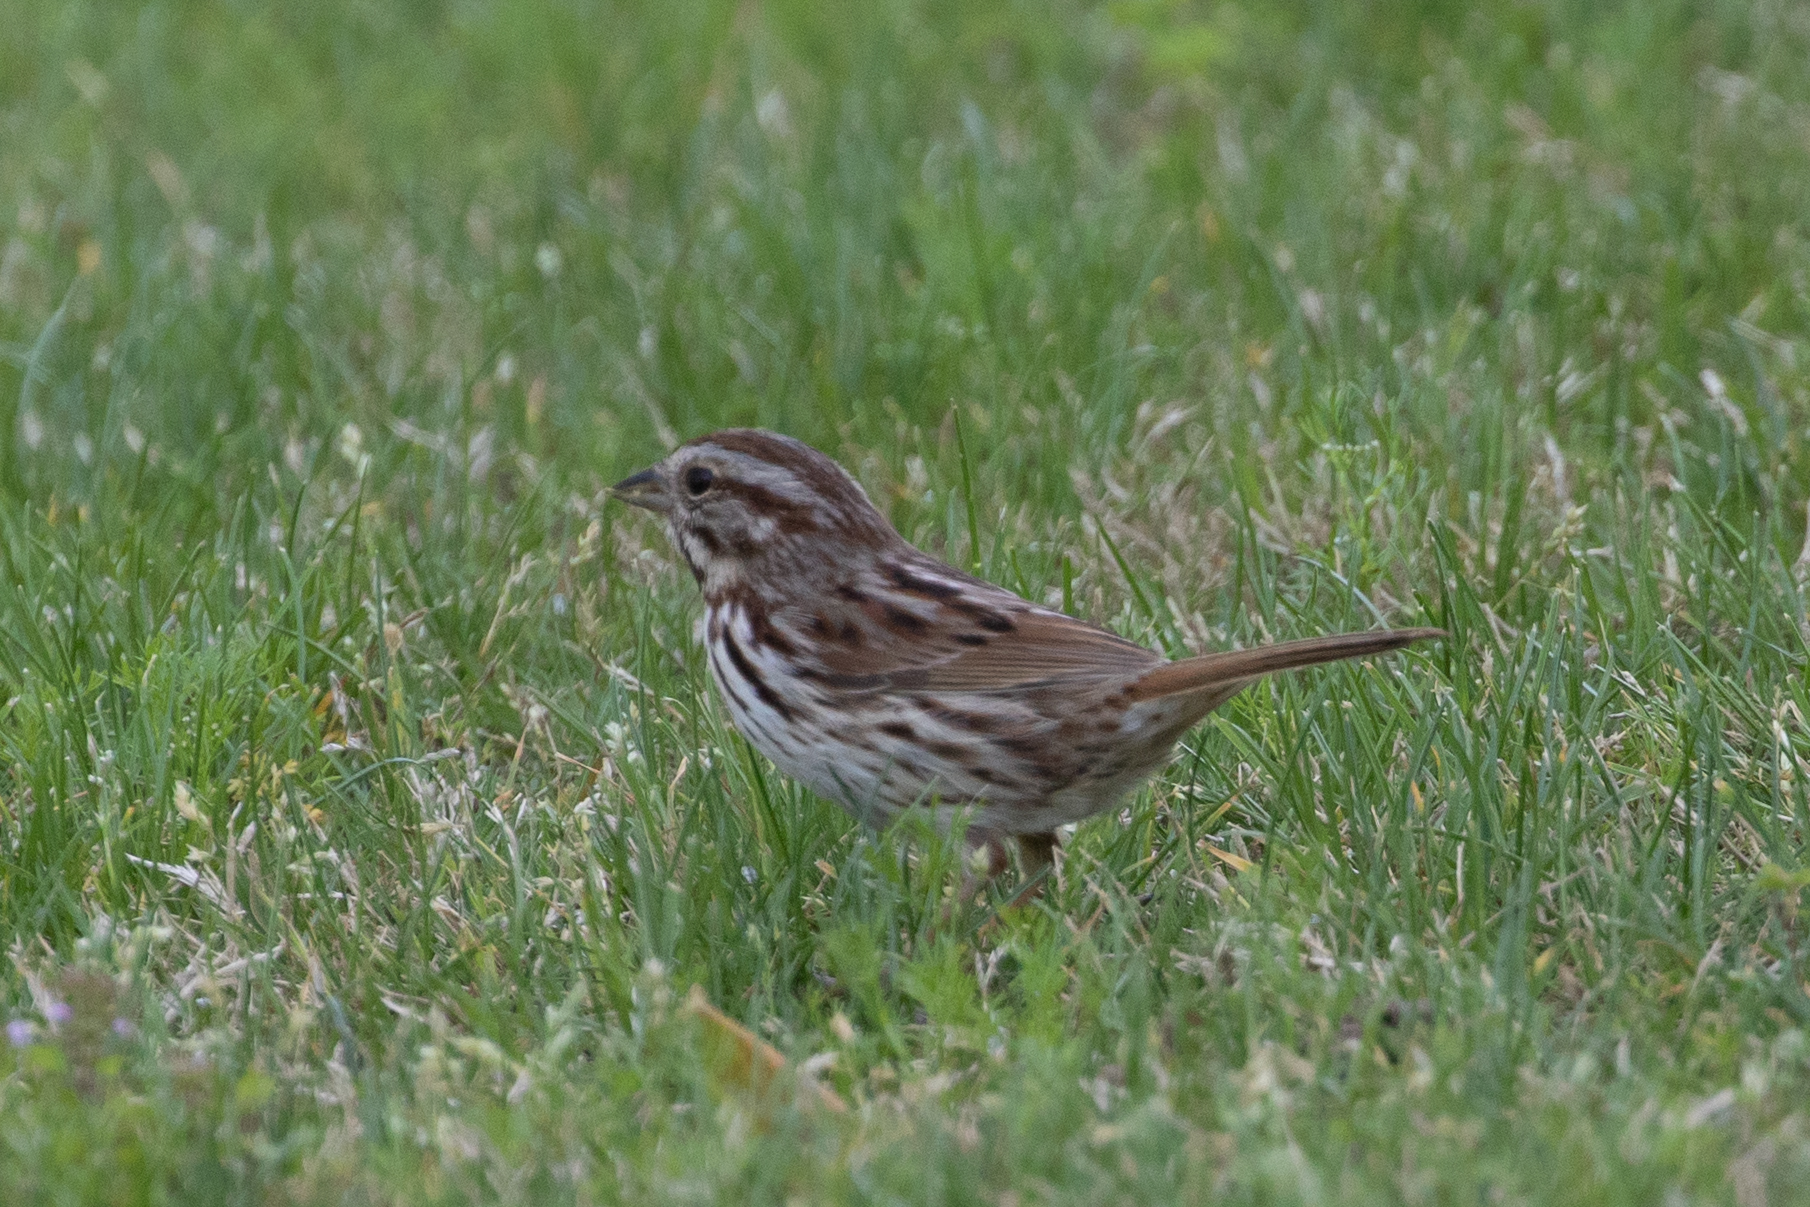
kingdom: Animalia
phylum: Chordata
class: Aves
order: Passeriformes
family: Passerellidae
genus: Melospiza
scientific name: Melospiza melodia
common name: Song sparrow
